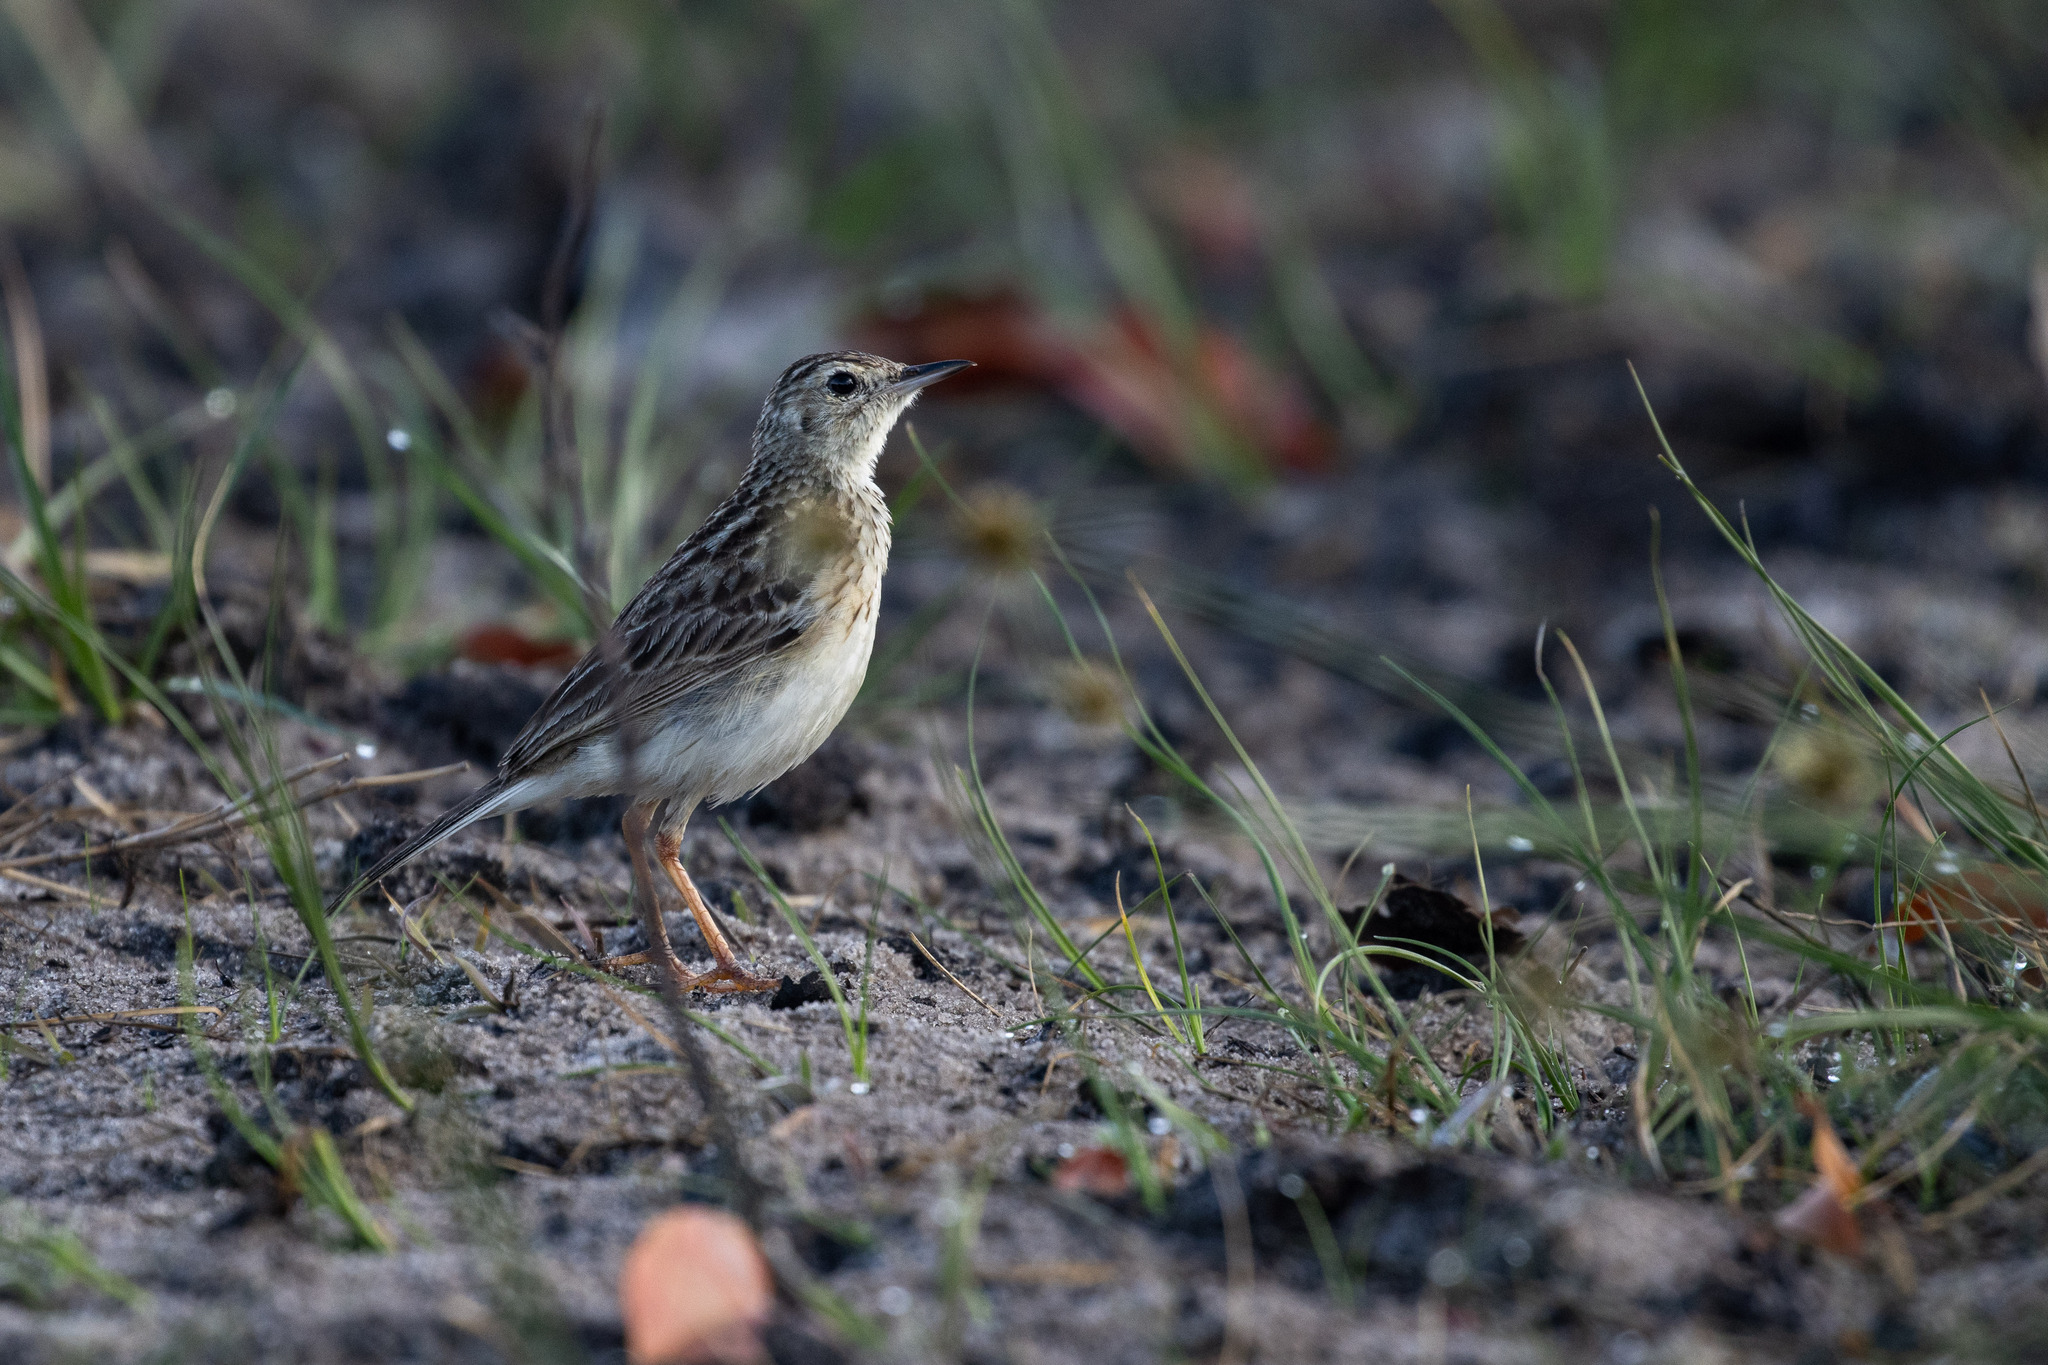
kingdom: Animalia
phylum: Chordata
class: Aves
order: Passeriformes
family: Motacillidae
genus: Anthus
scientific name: Anthus chii
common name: Yellowish pipit
